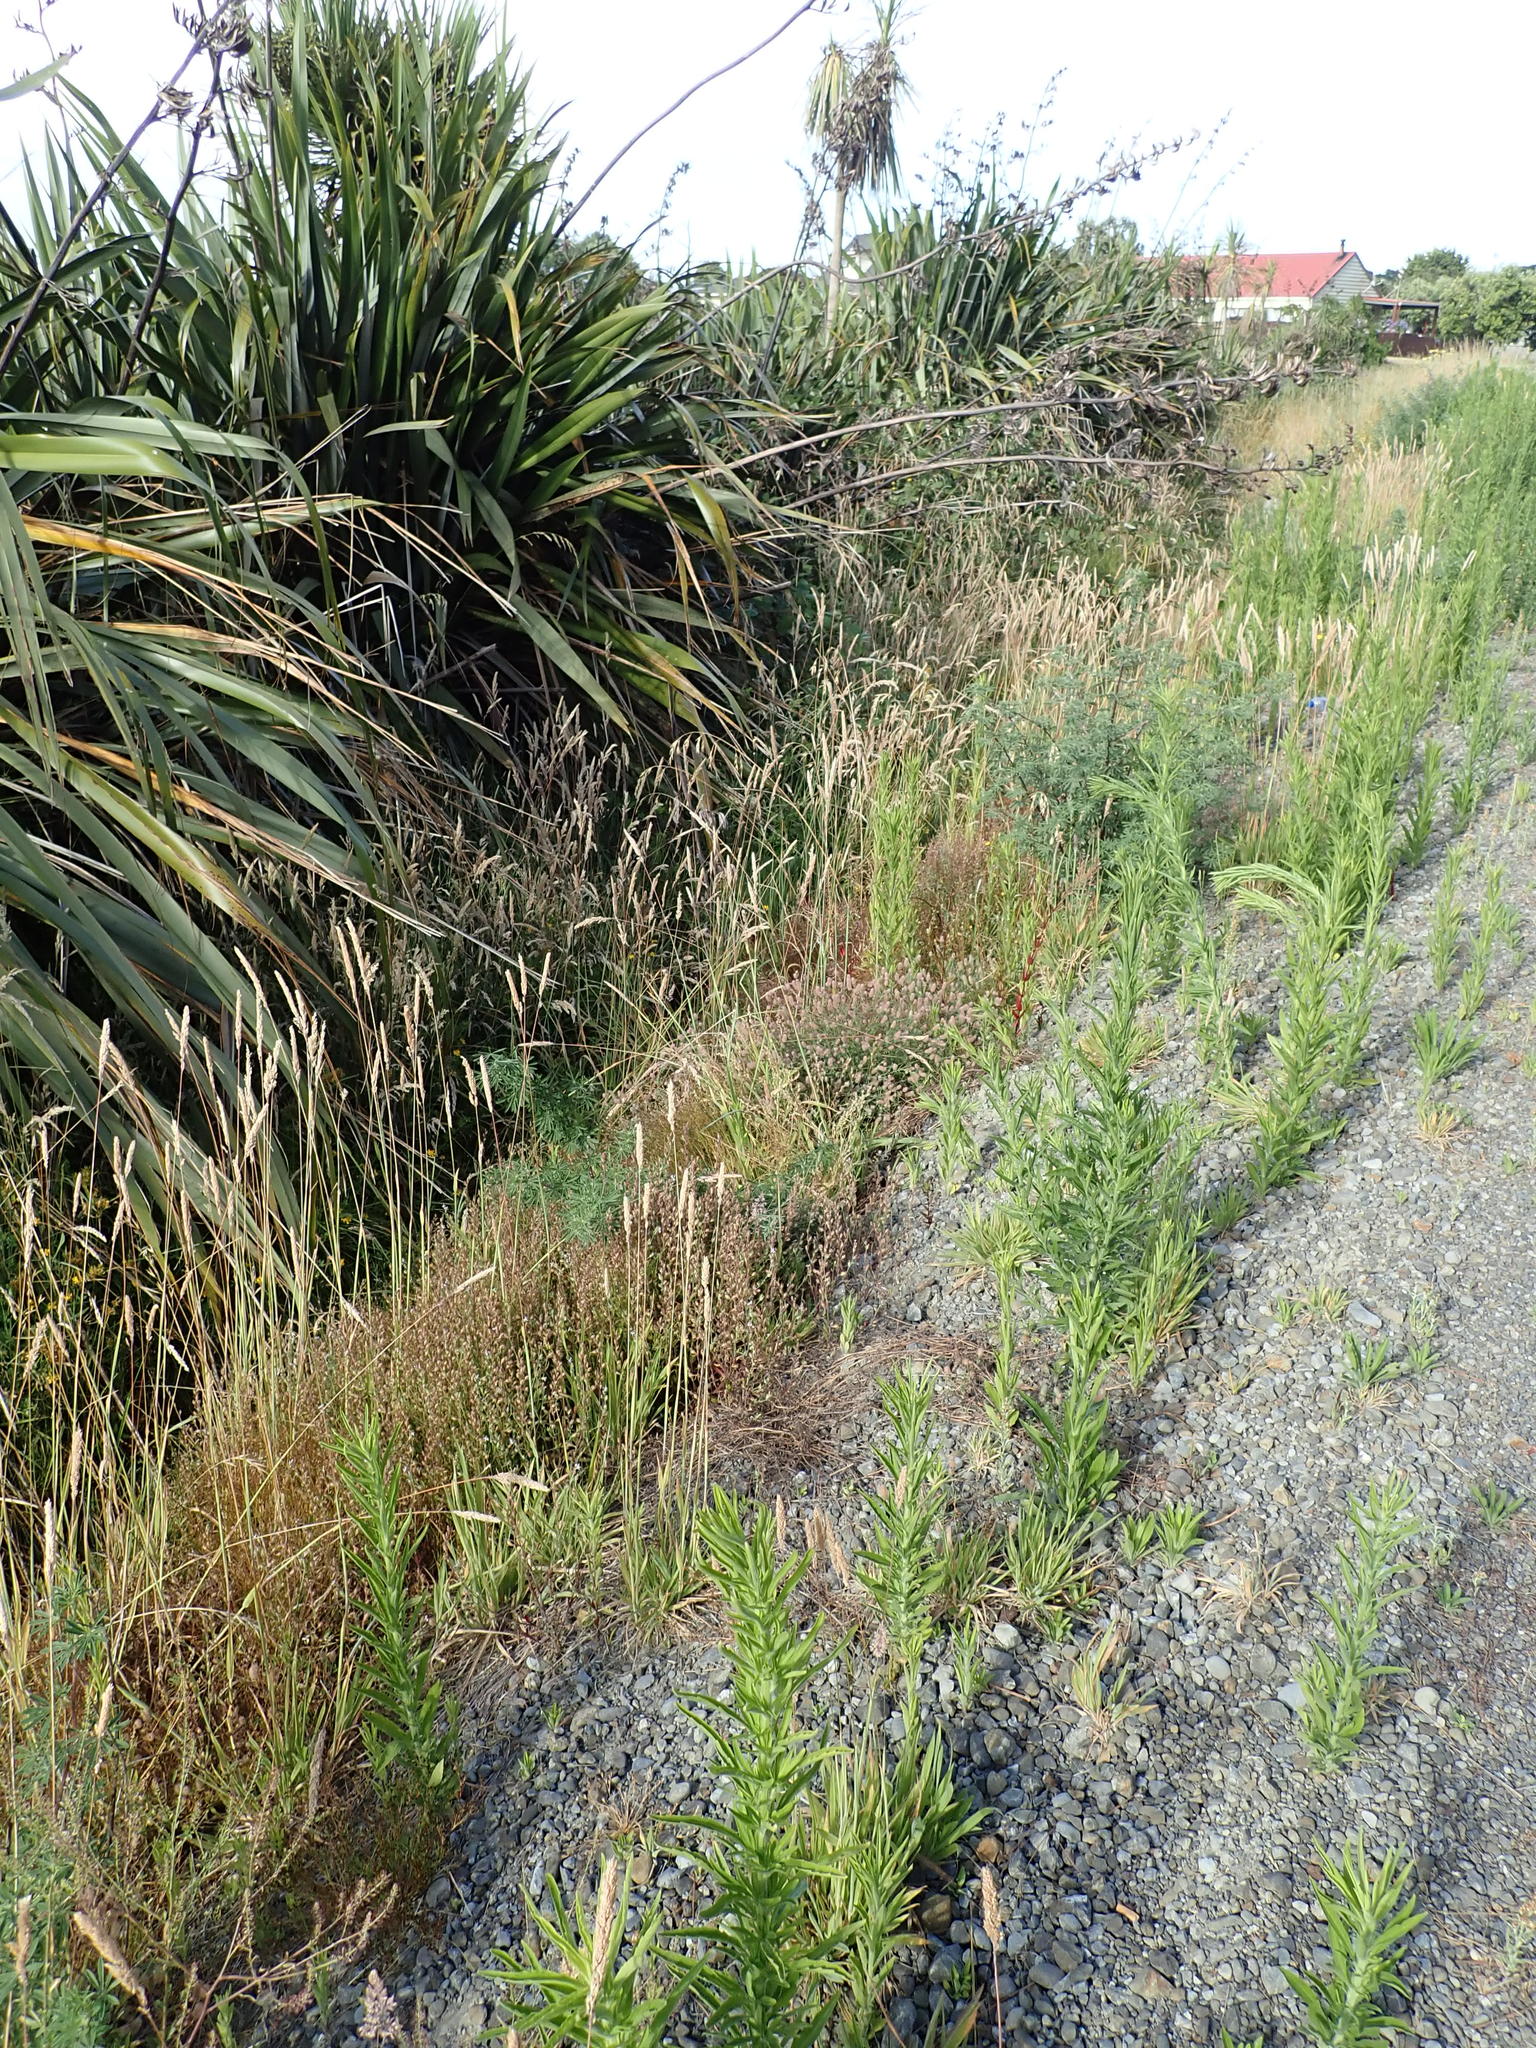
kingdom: Plantae
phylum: Tracheophyta
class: Magnoliopsida
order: Fabales
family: Fabaceae
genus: Trifolium
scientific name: Trifolium arvense
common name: Hare's-foot clover
